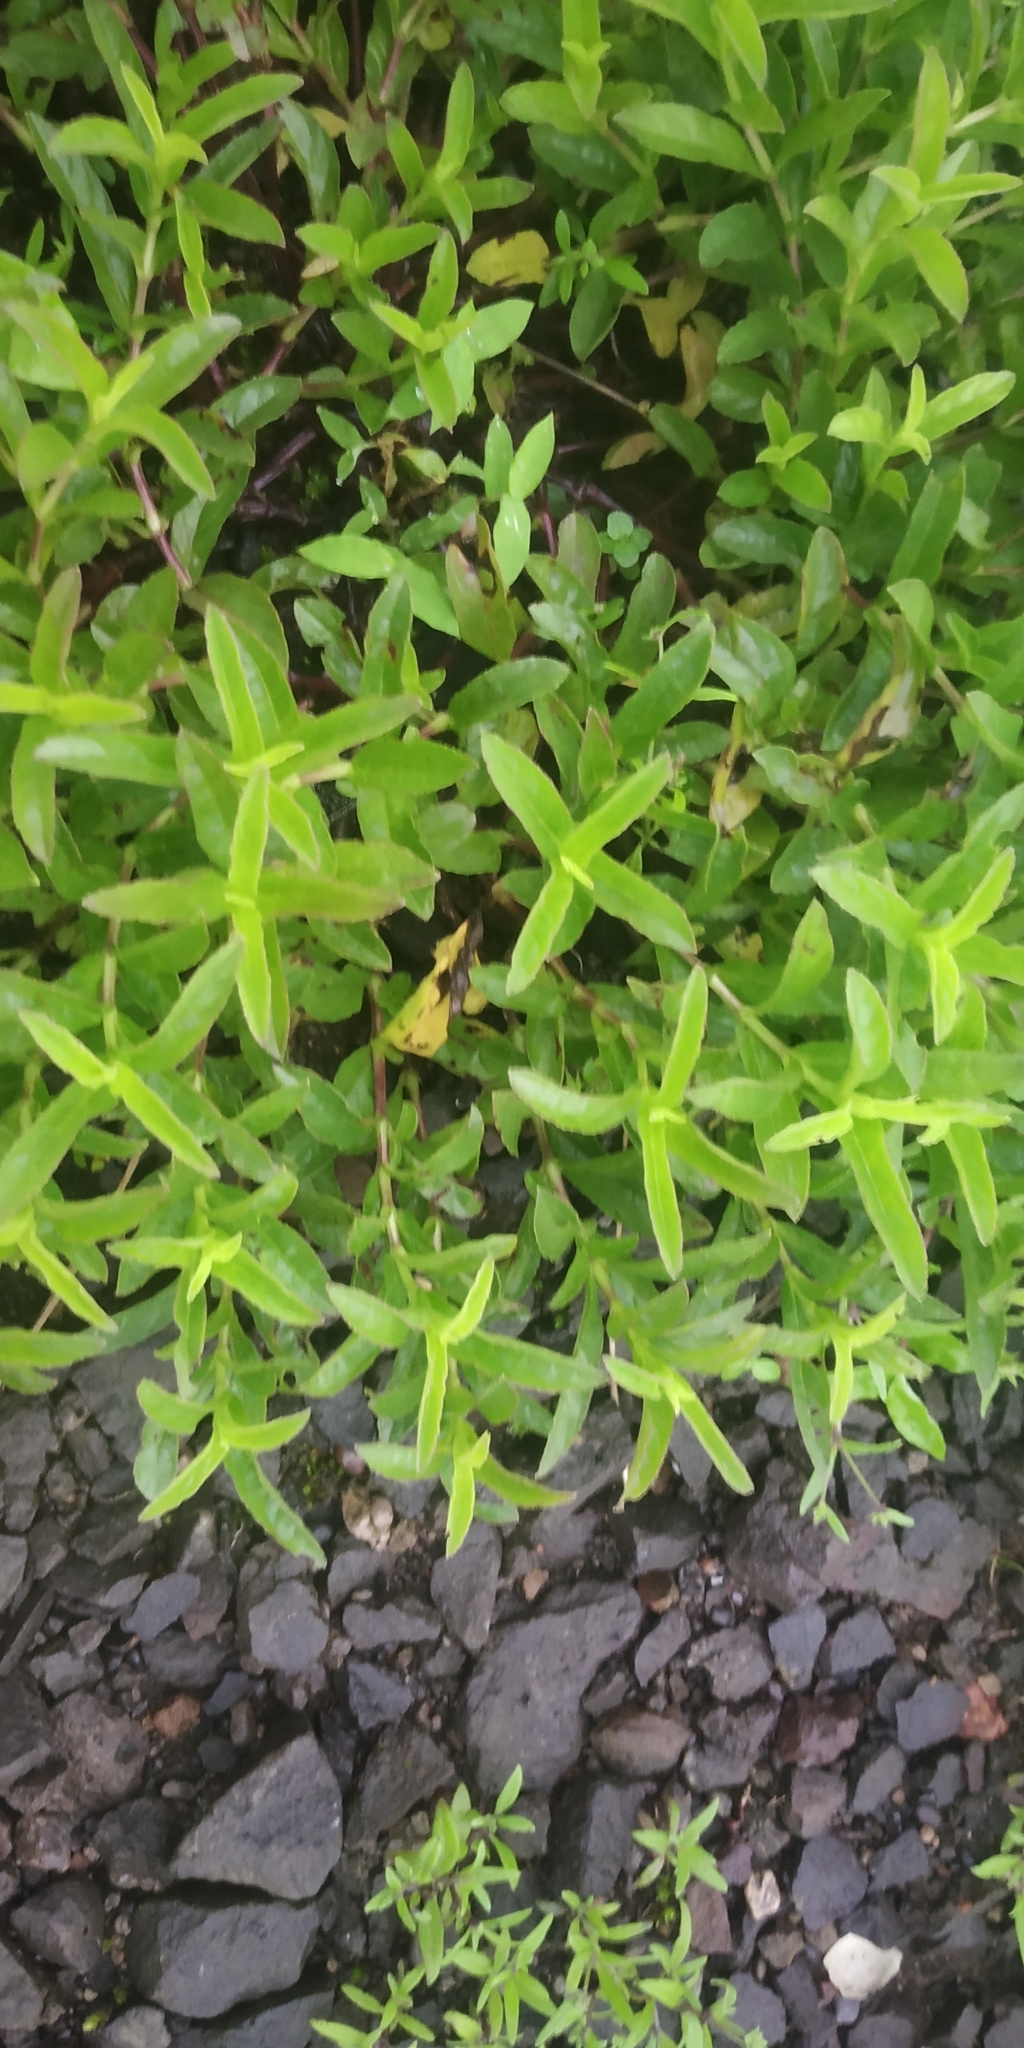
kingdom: Plantae
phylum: Tracheophyta
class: Magnoliopsida
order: Lamiales
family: Acanthaceae
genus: Lepidagathis
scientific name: Lepidagathis mitis
